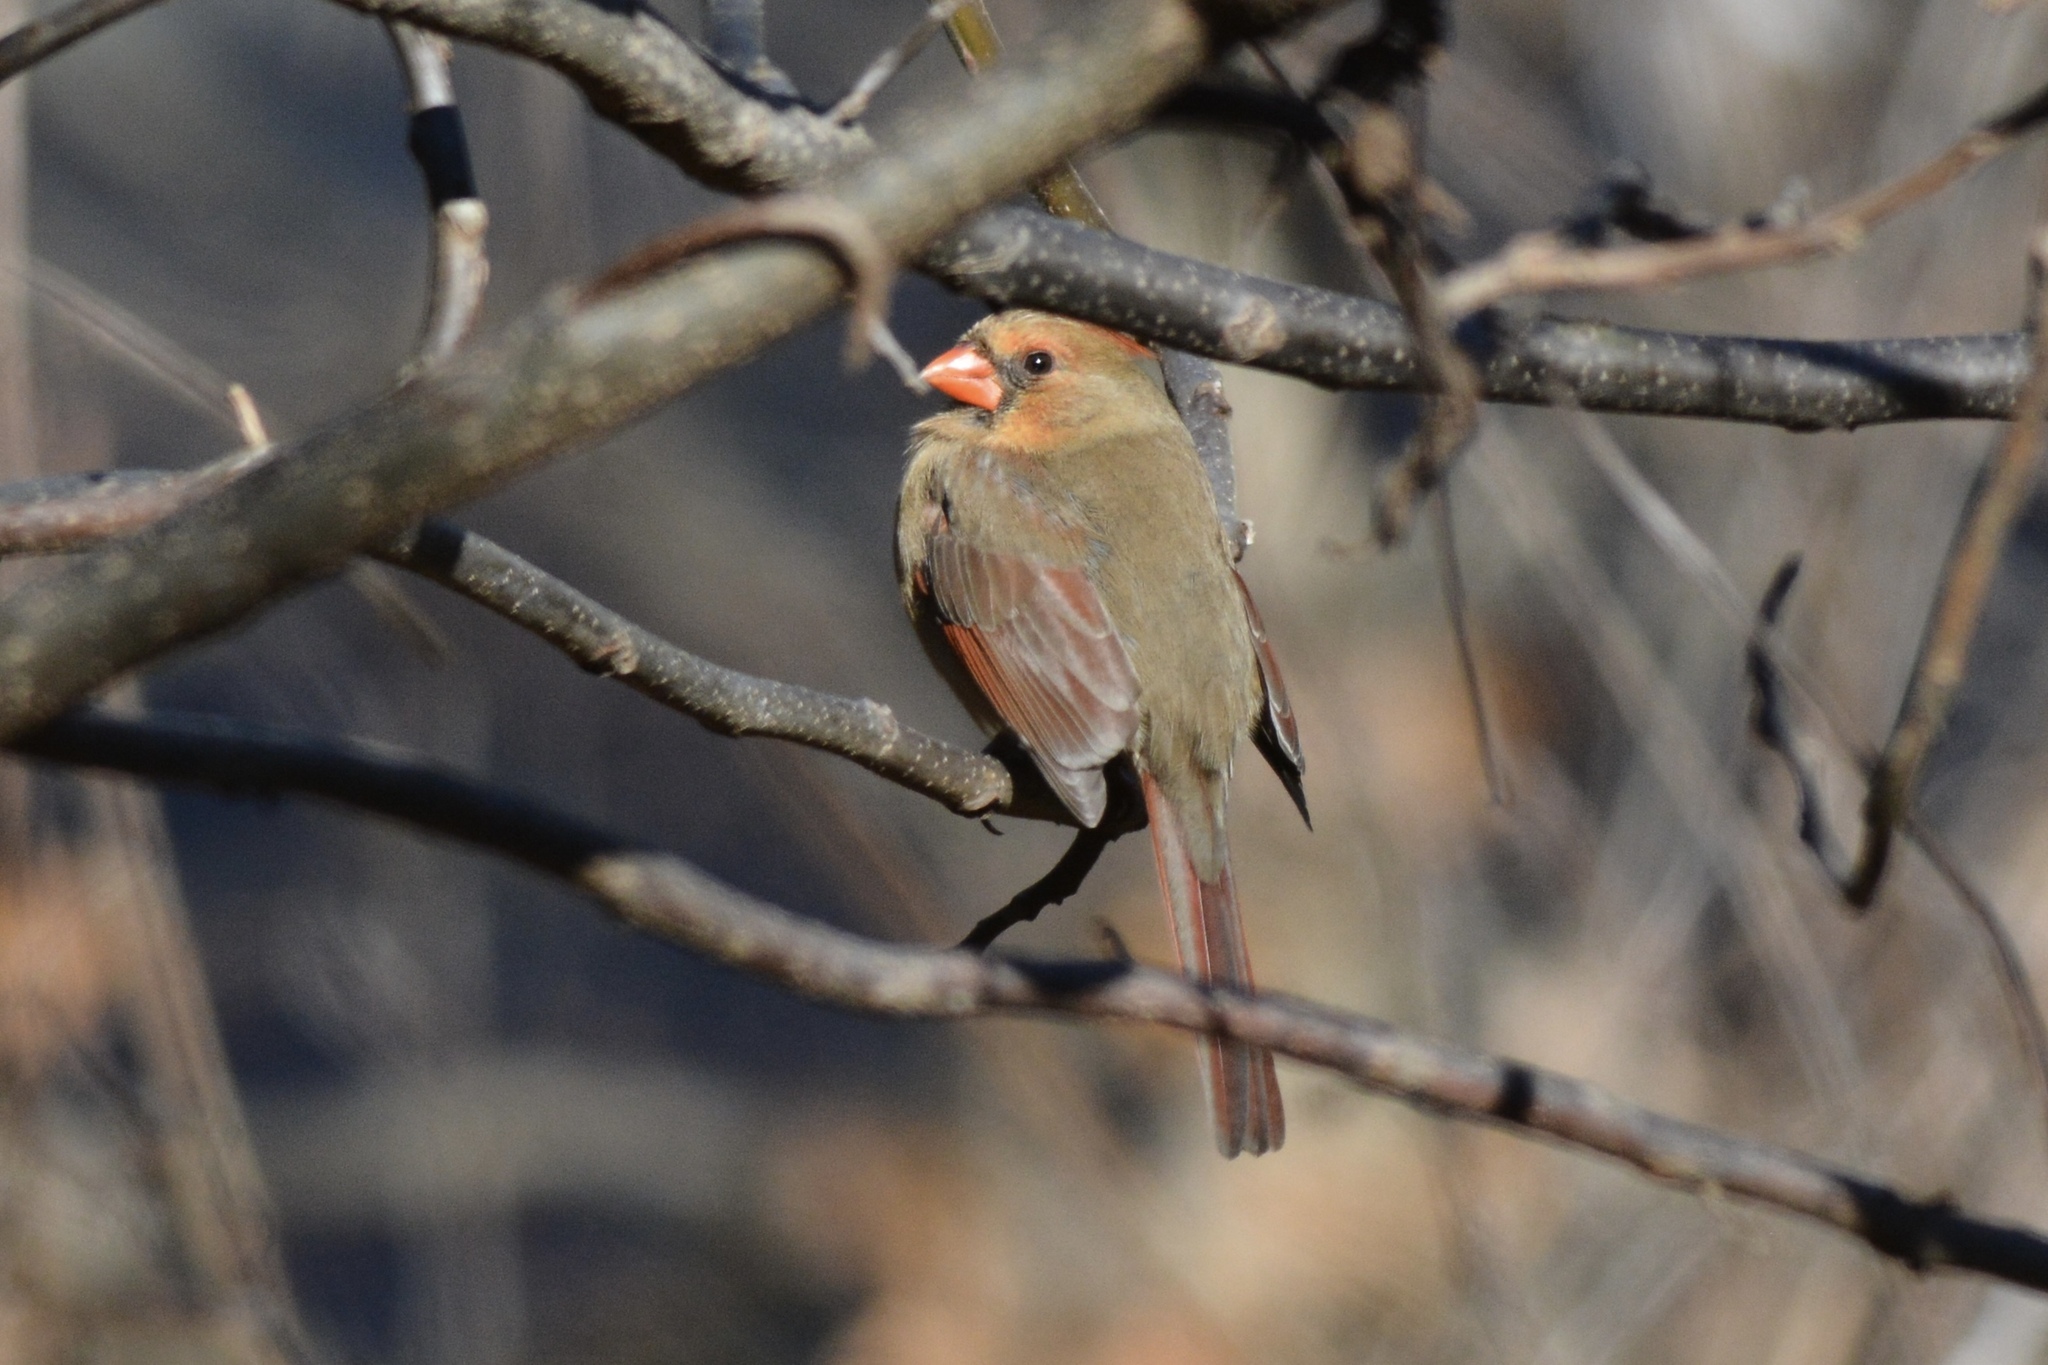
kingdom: Animalia
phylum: Chordata
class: Aves
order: Passeriformes
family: Cardinalidae
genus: Cardinalis
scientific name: Cardinalis cardinalis
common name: Northern cardinal
